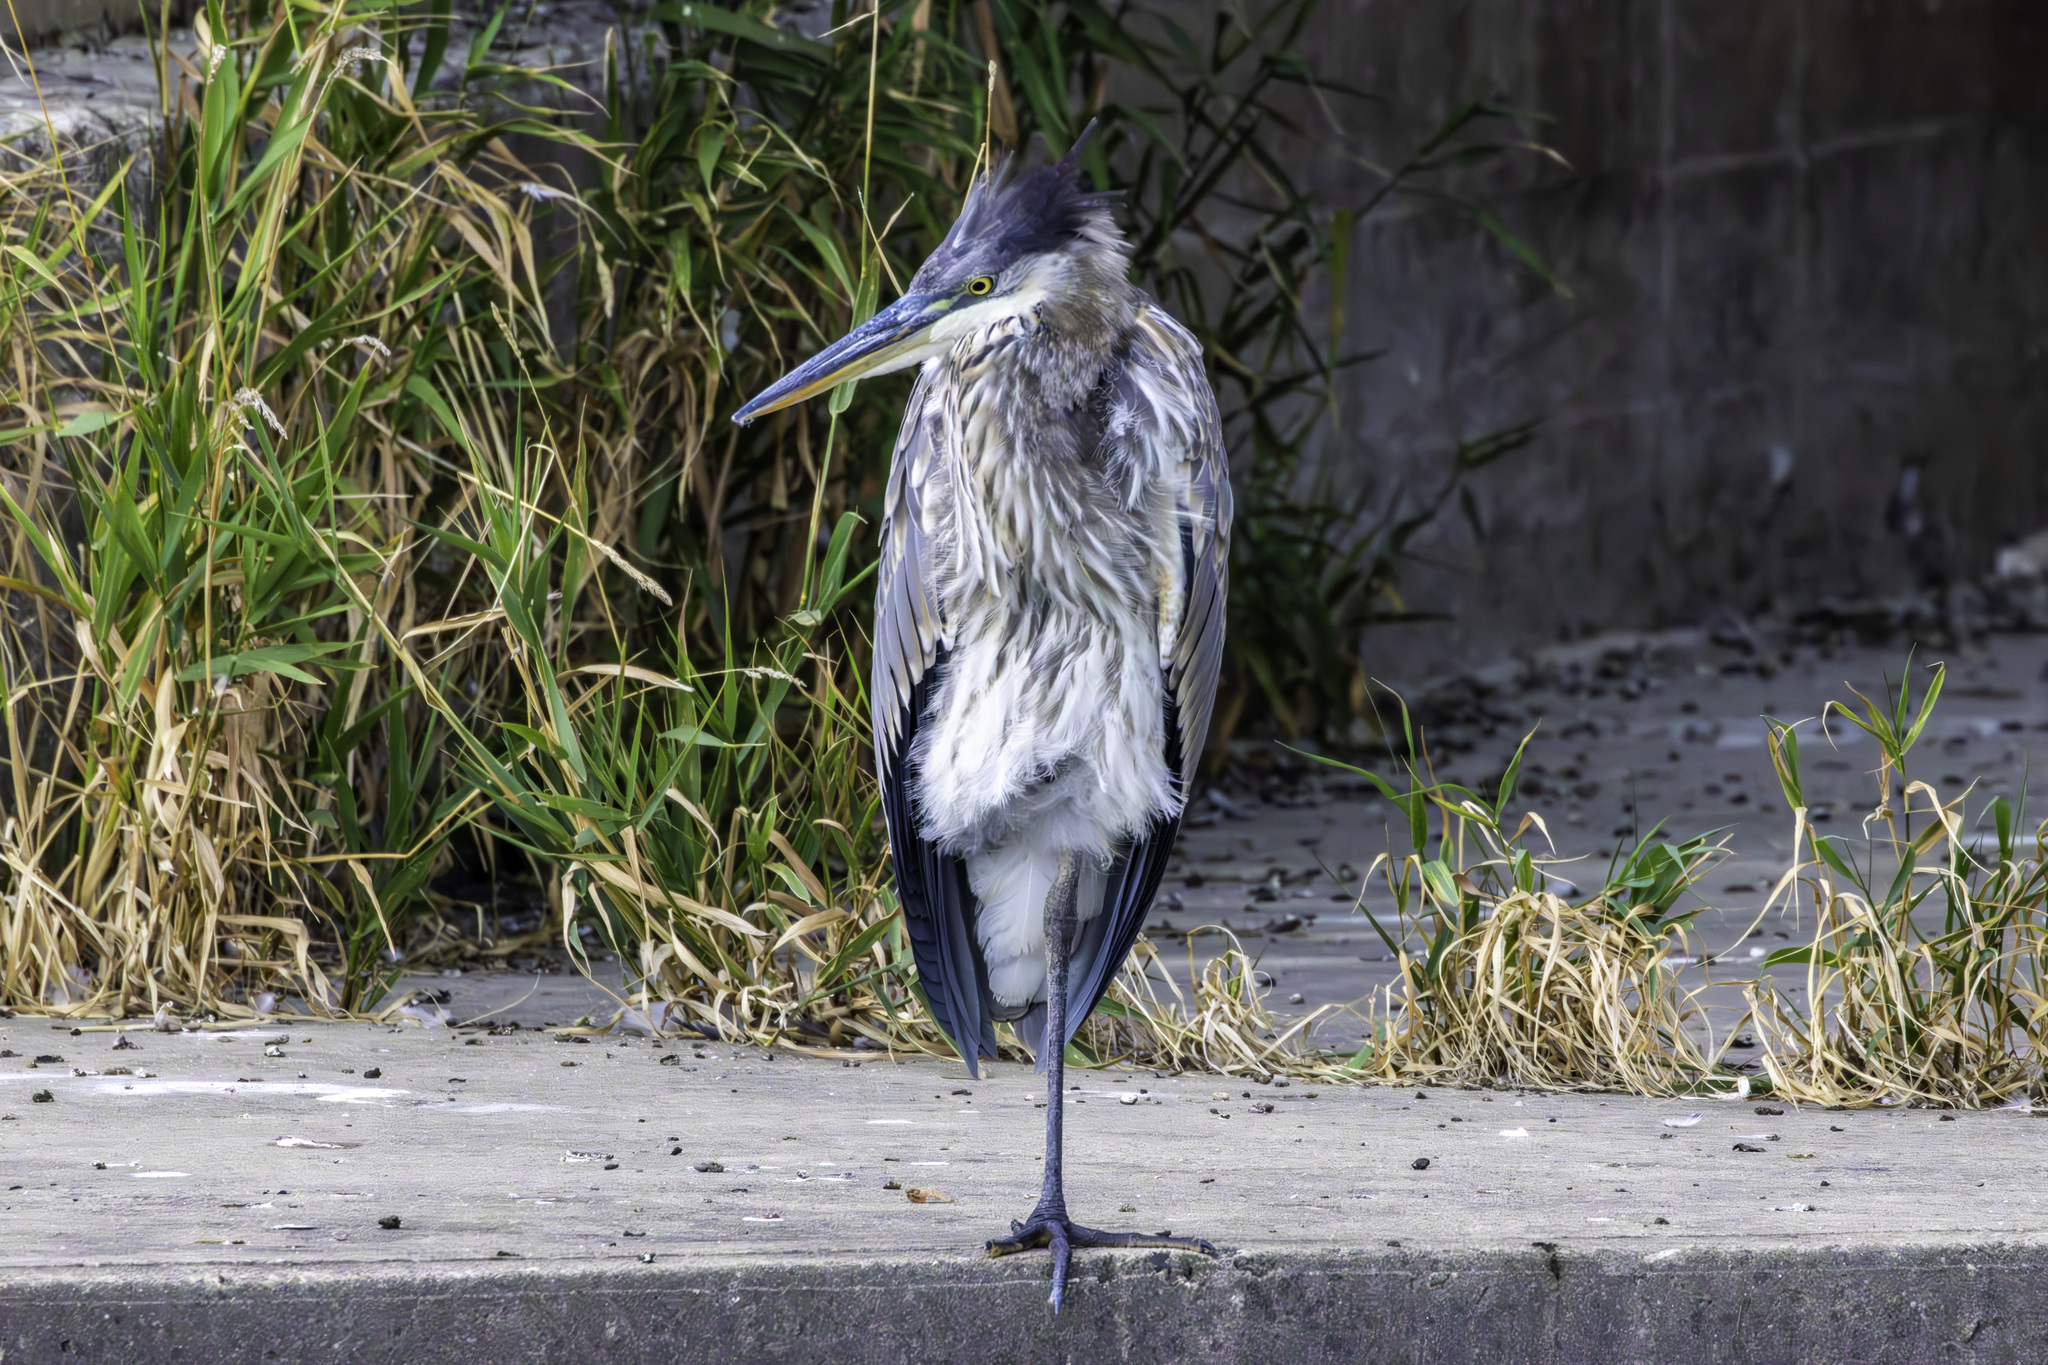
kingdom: Animalia
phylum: Chordata
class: Aves
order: Pelecaniformes
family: Ardeidae
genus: Ardea
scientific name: Ardea herodias
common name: Great blue heron
